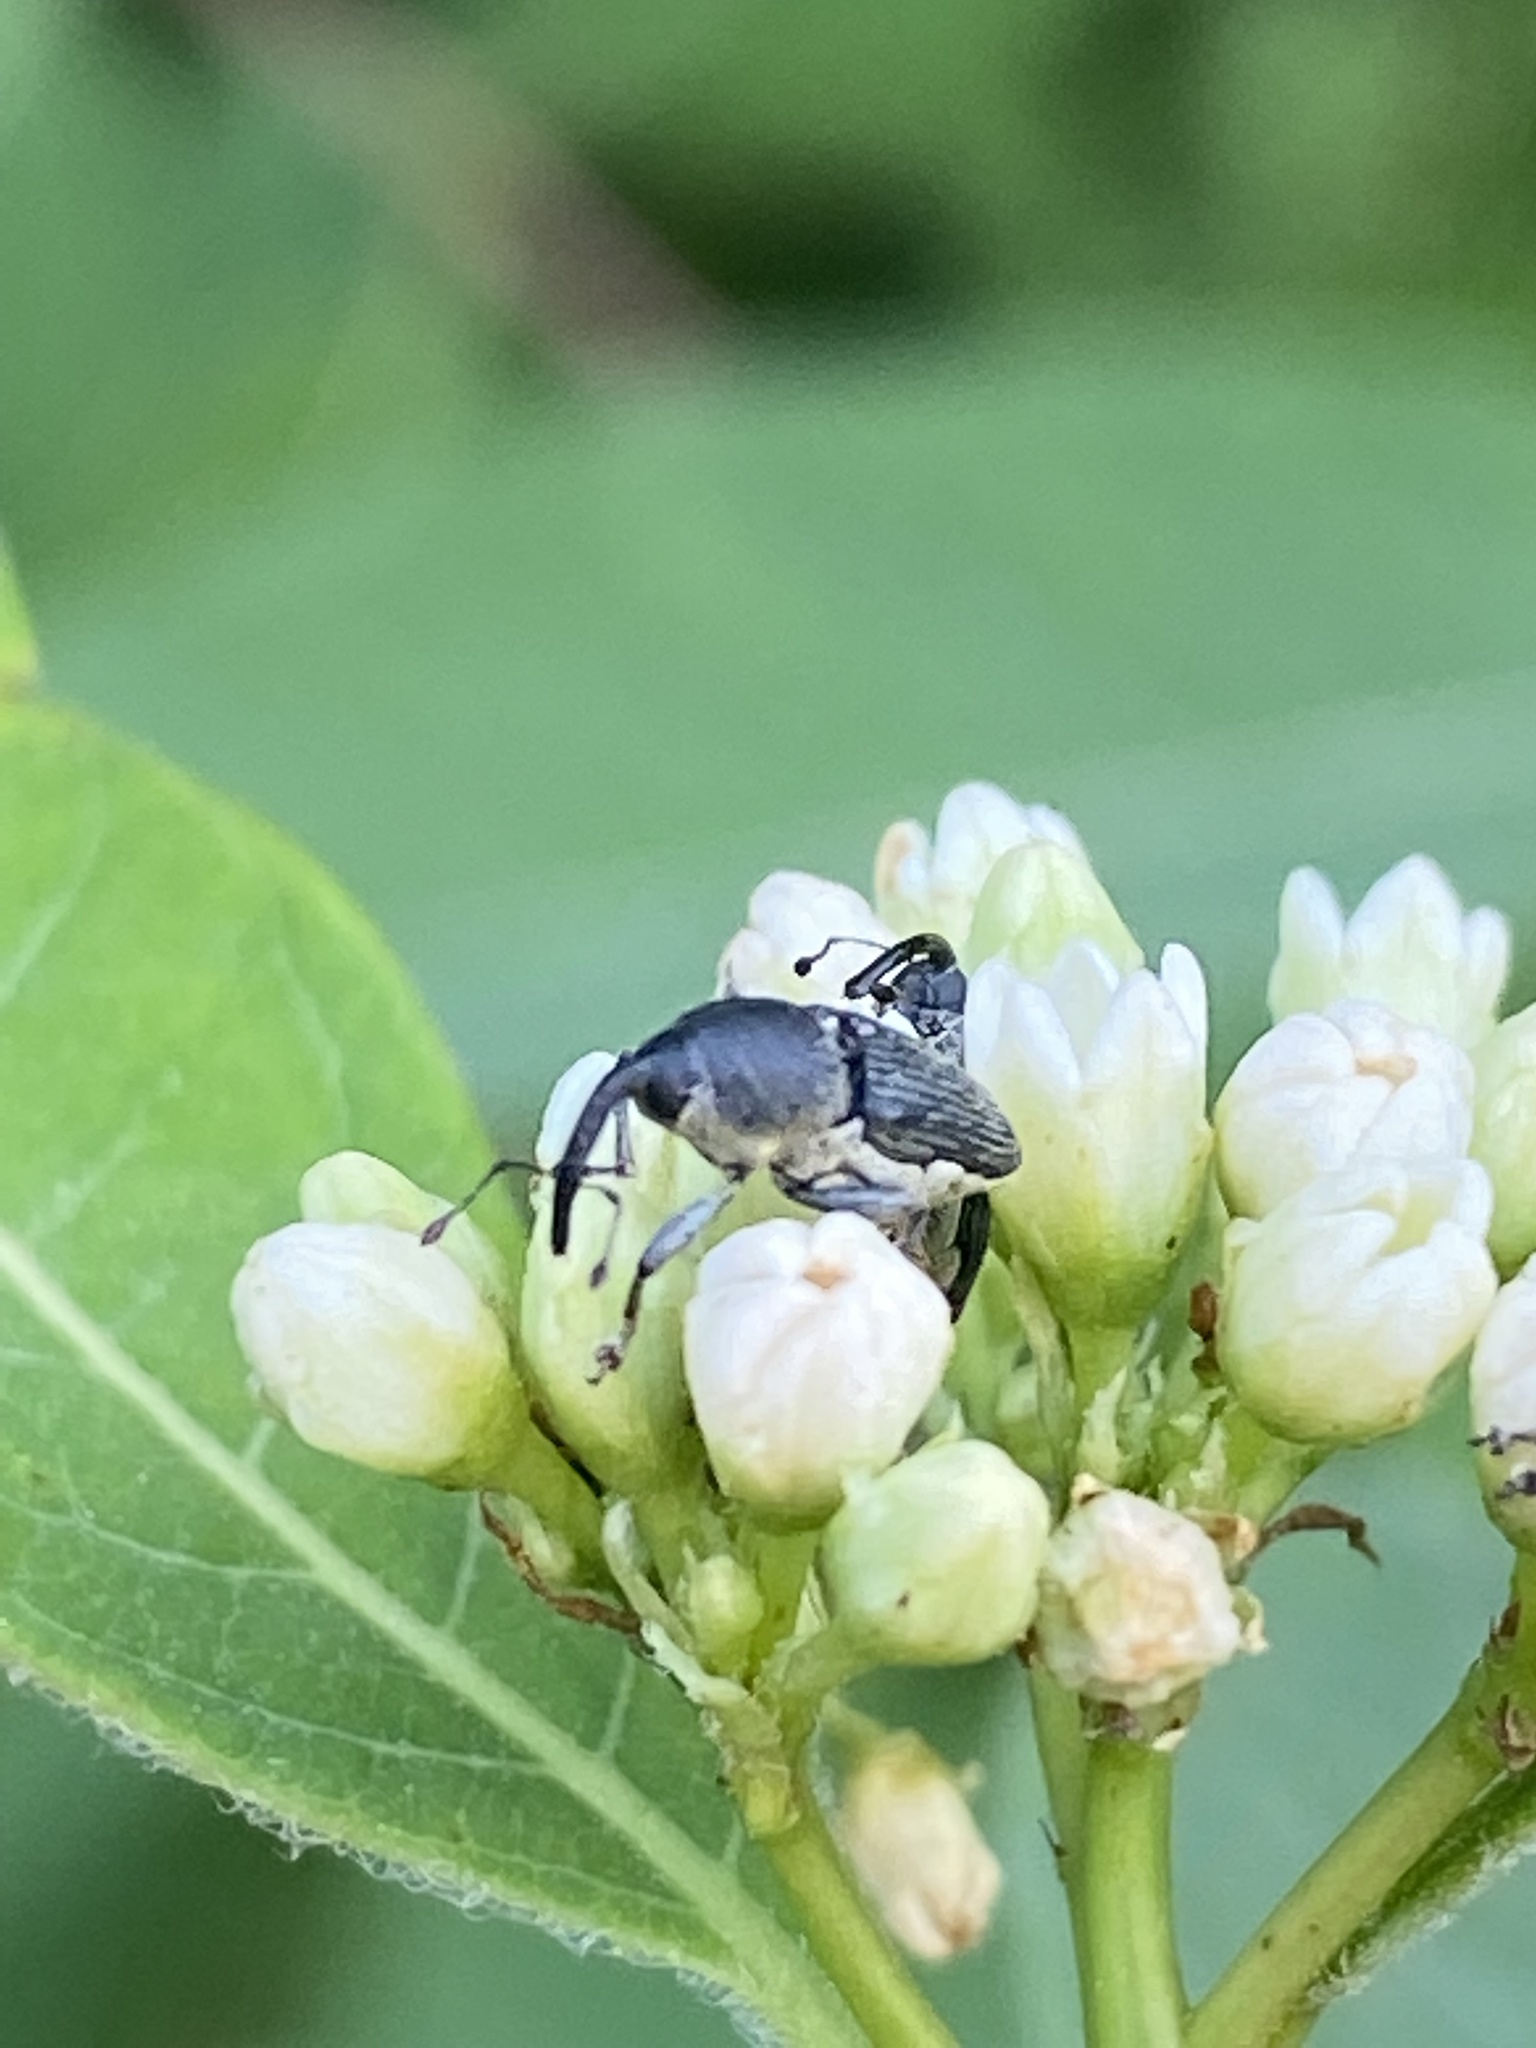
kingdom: Animalia
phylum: Arthropoda
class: Insecta
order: Coleoptera
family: Curculionidae
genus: Odontocorynus
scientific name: Odontocorynus salebrosus
